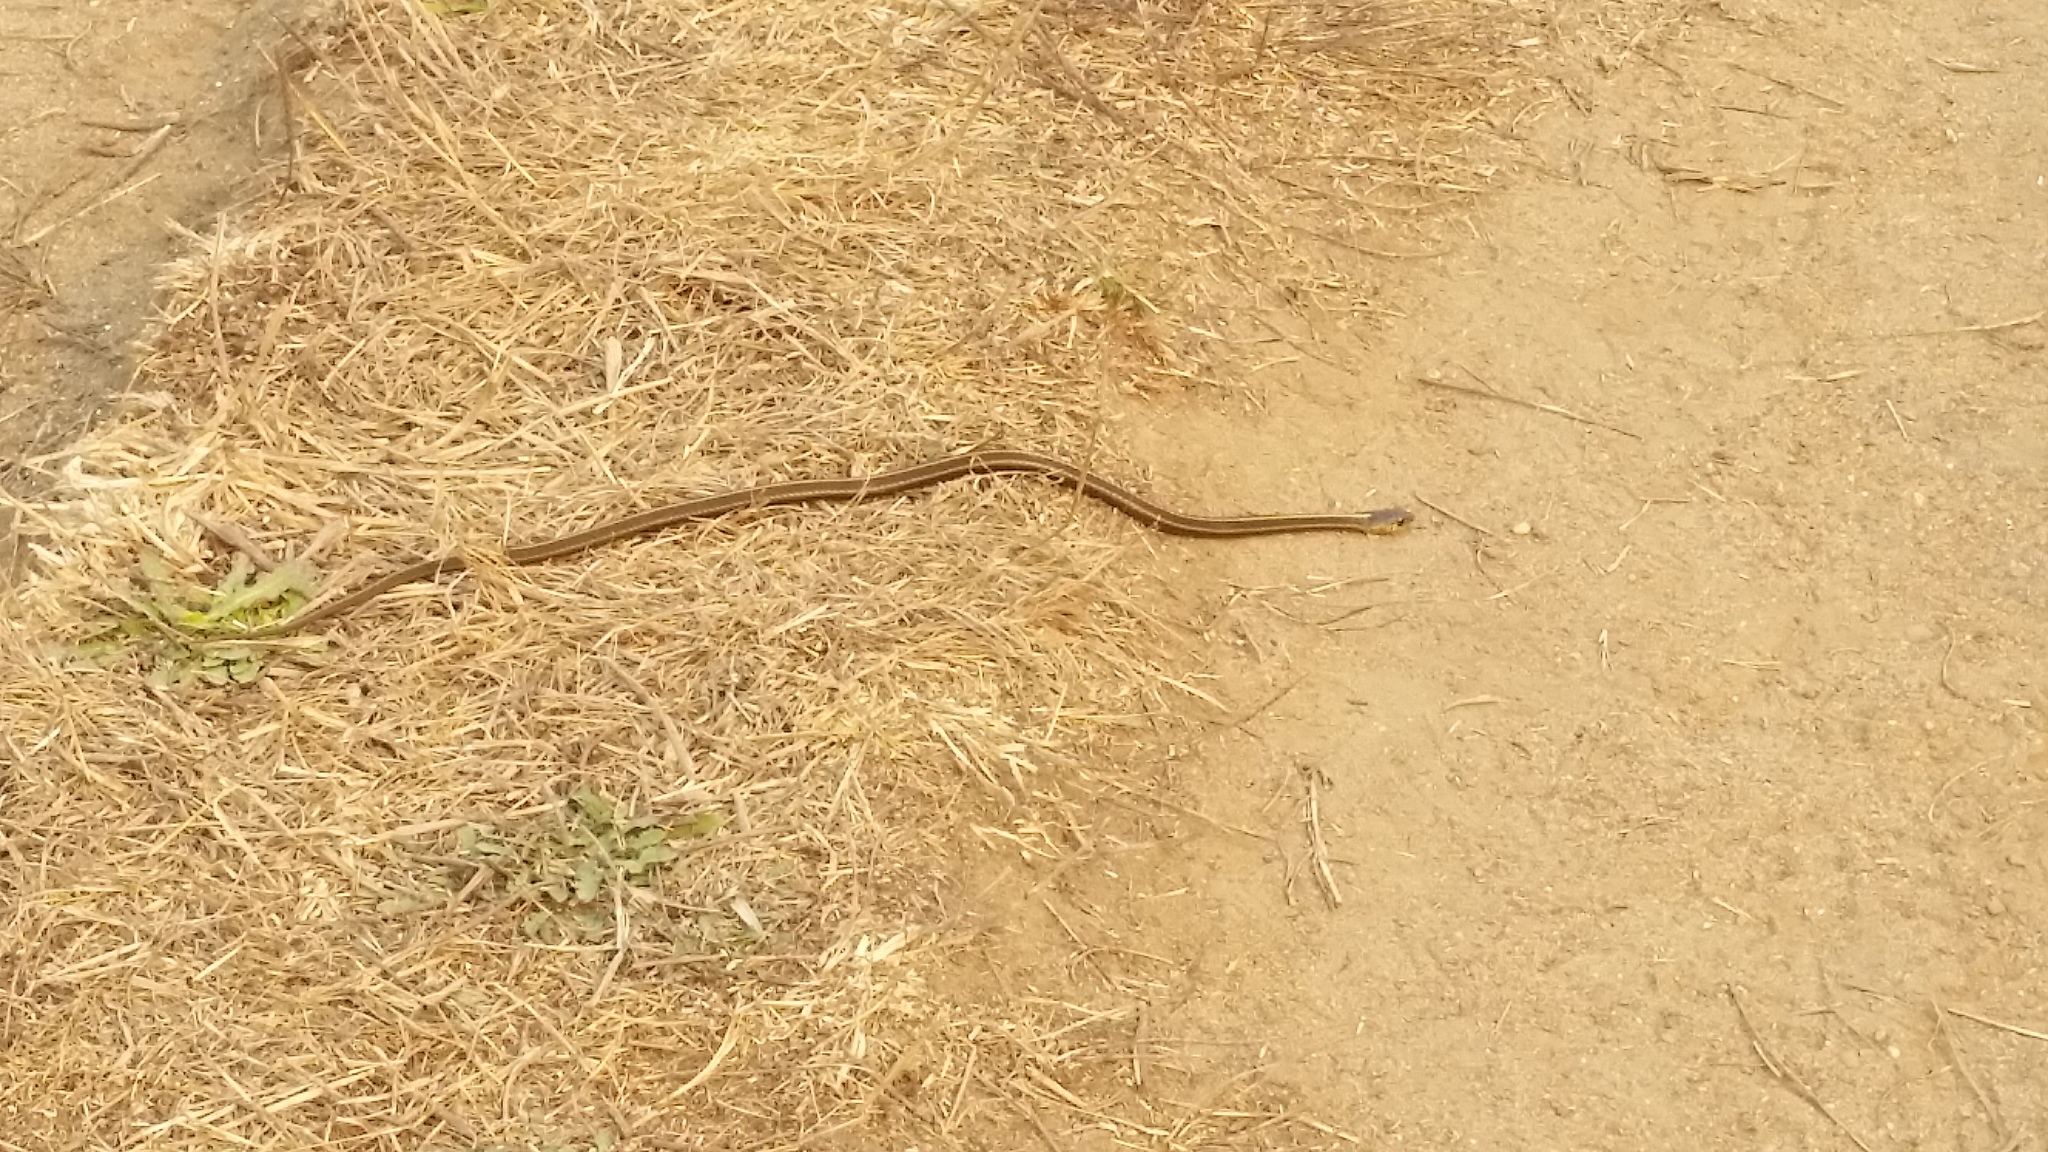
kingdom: Animalia
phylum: Chordata
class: Squamata
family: Colubridae
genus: Thamnophis
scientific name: Thamnophis elegans
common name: Western terrestrial garter snake
